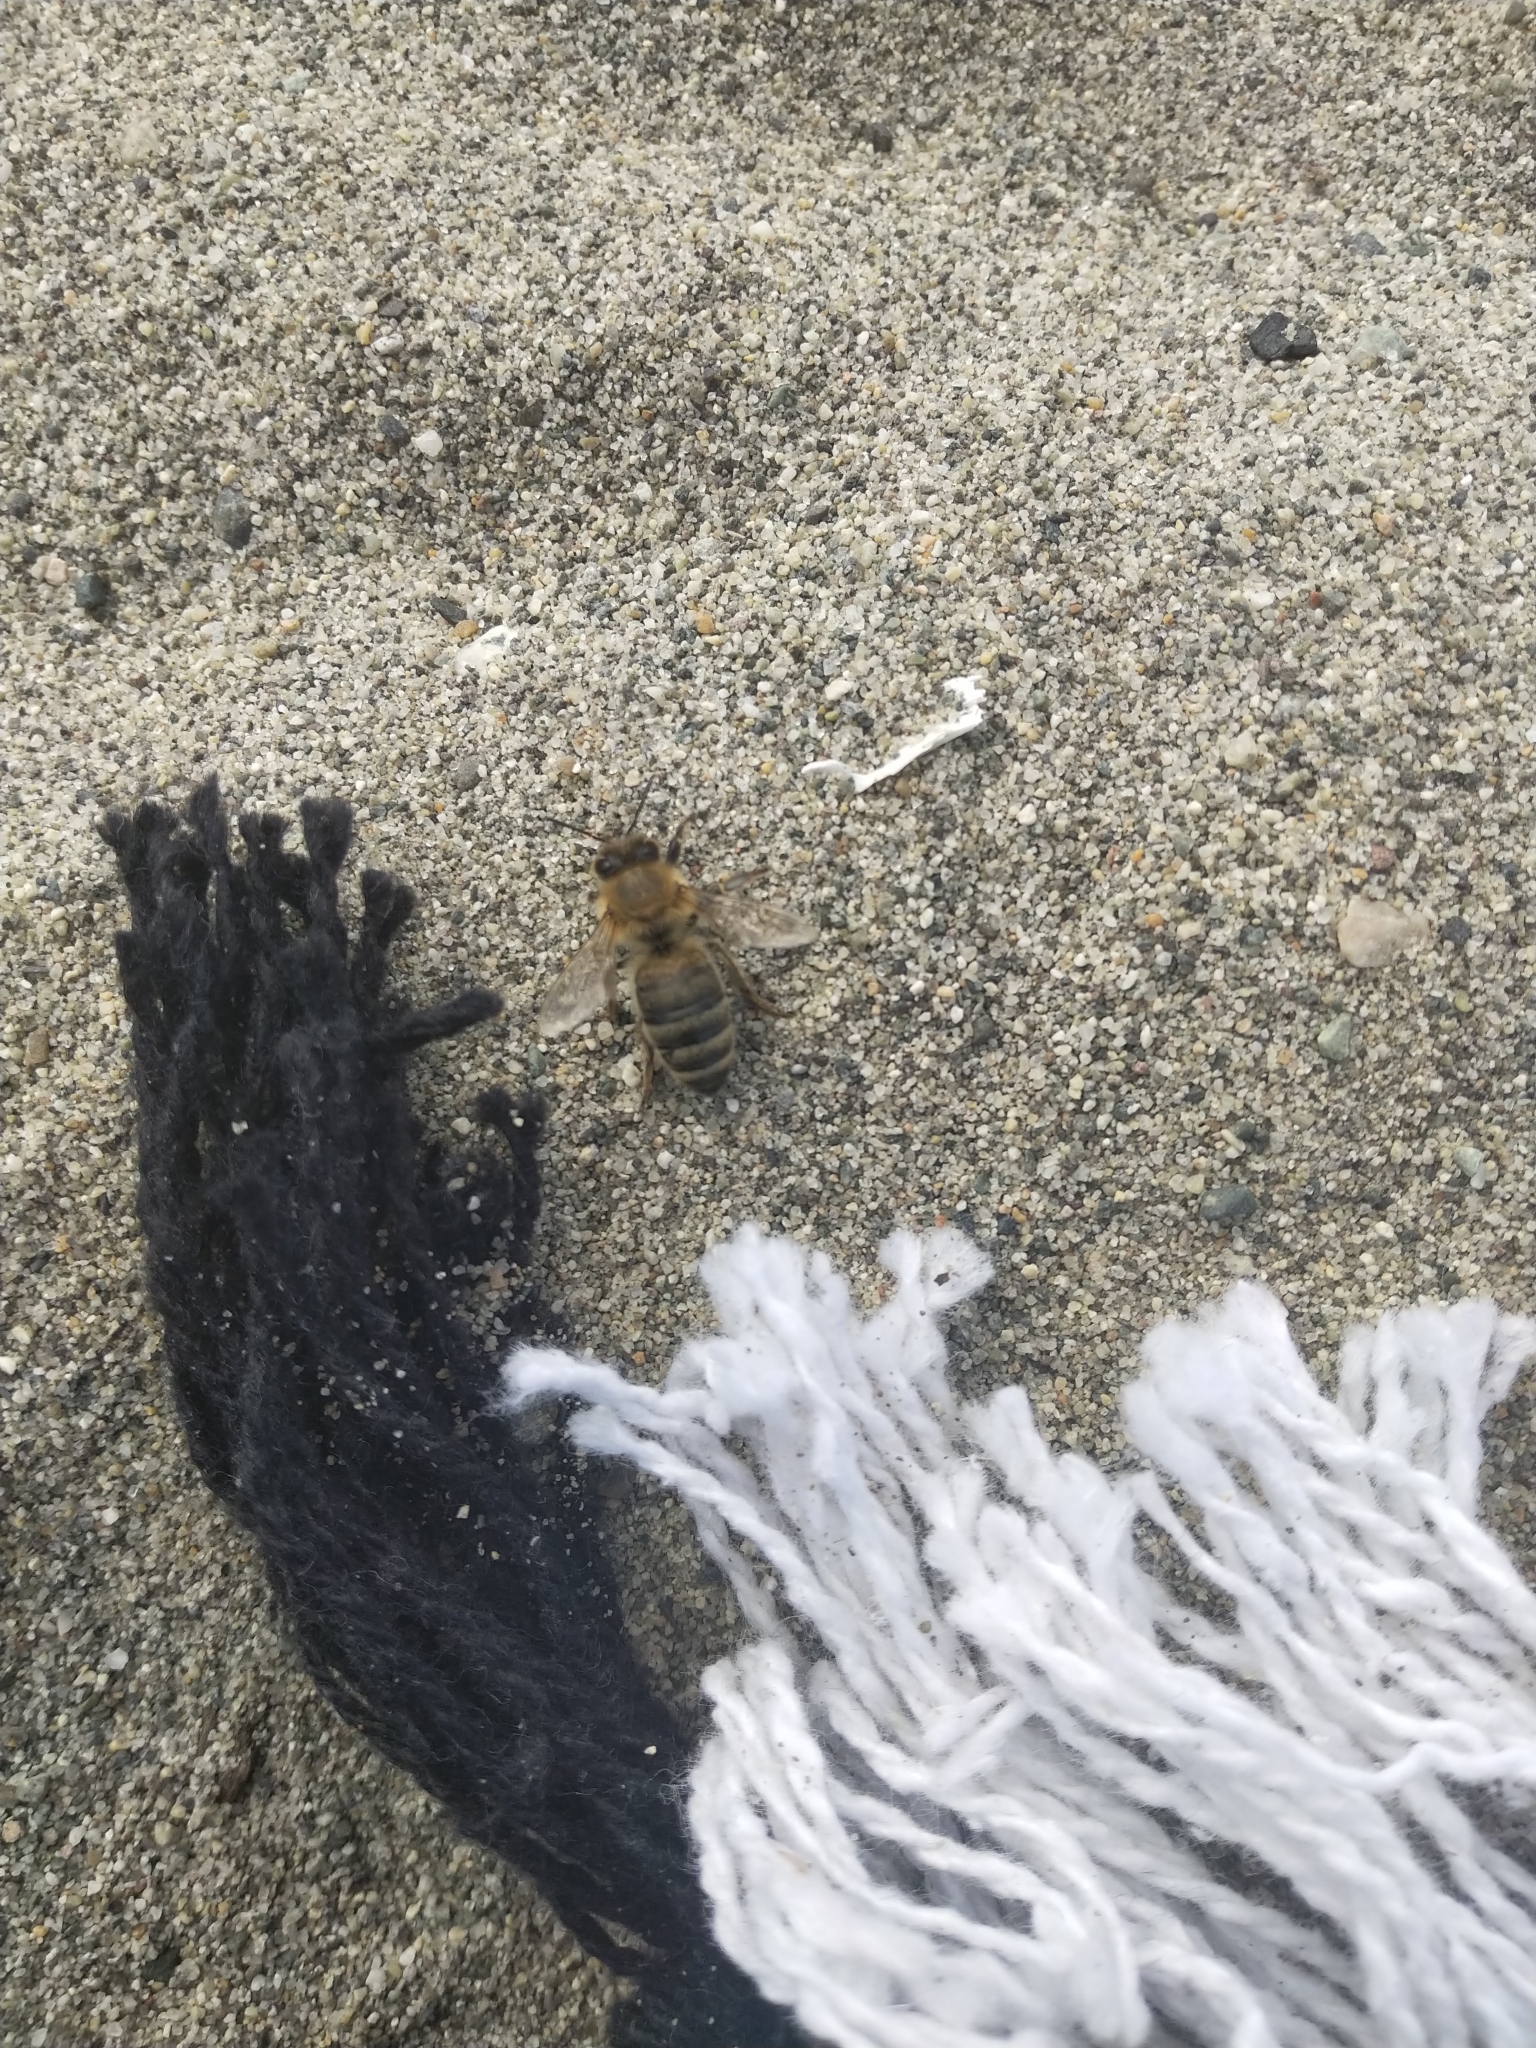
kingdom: Animalia
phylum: Arthropoda
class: Insecta
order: Hymenoptera
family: Apidae
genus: Apis
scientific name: Apis mellifera
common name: Honey bee
